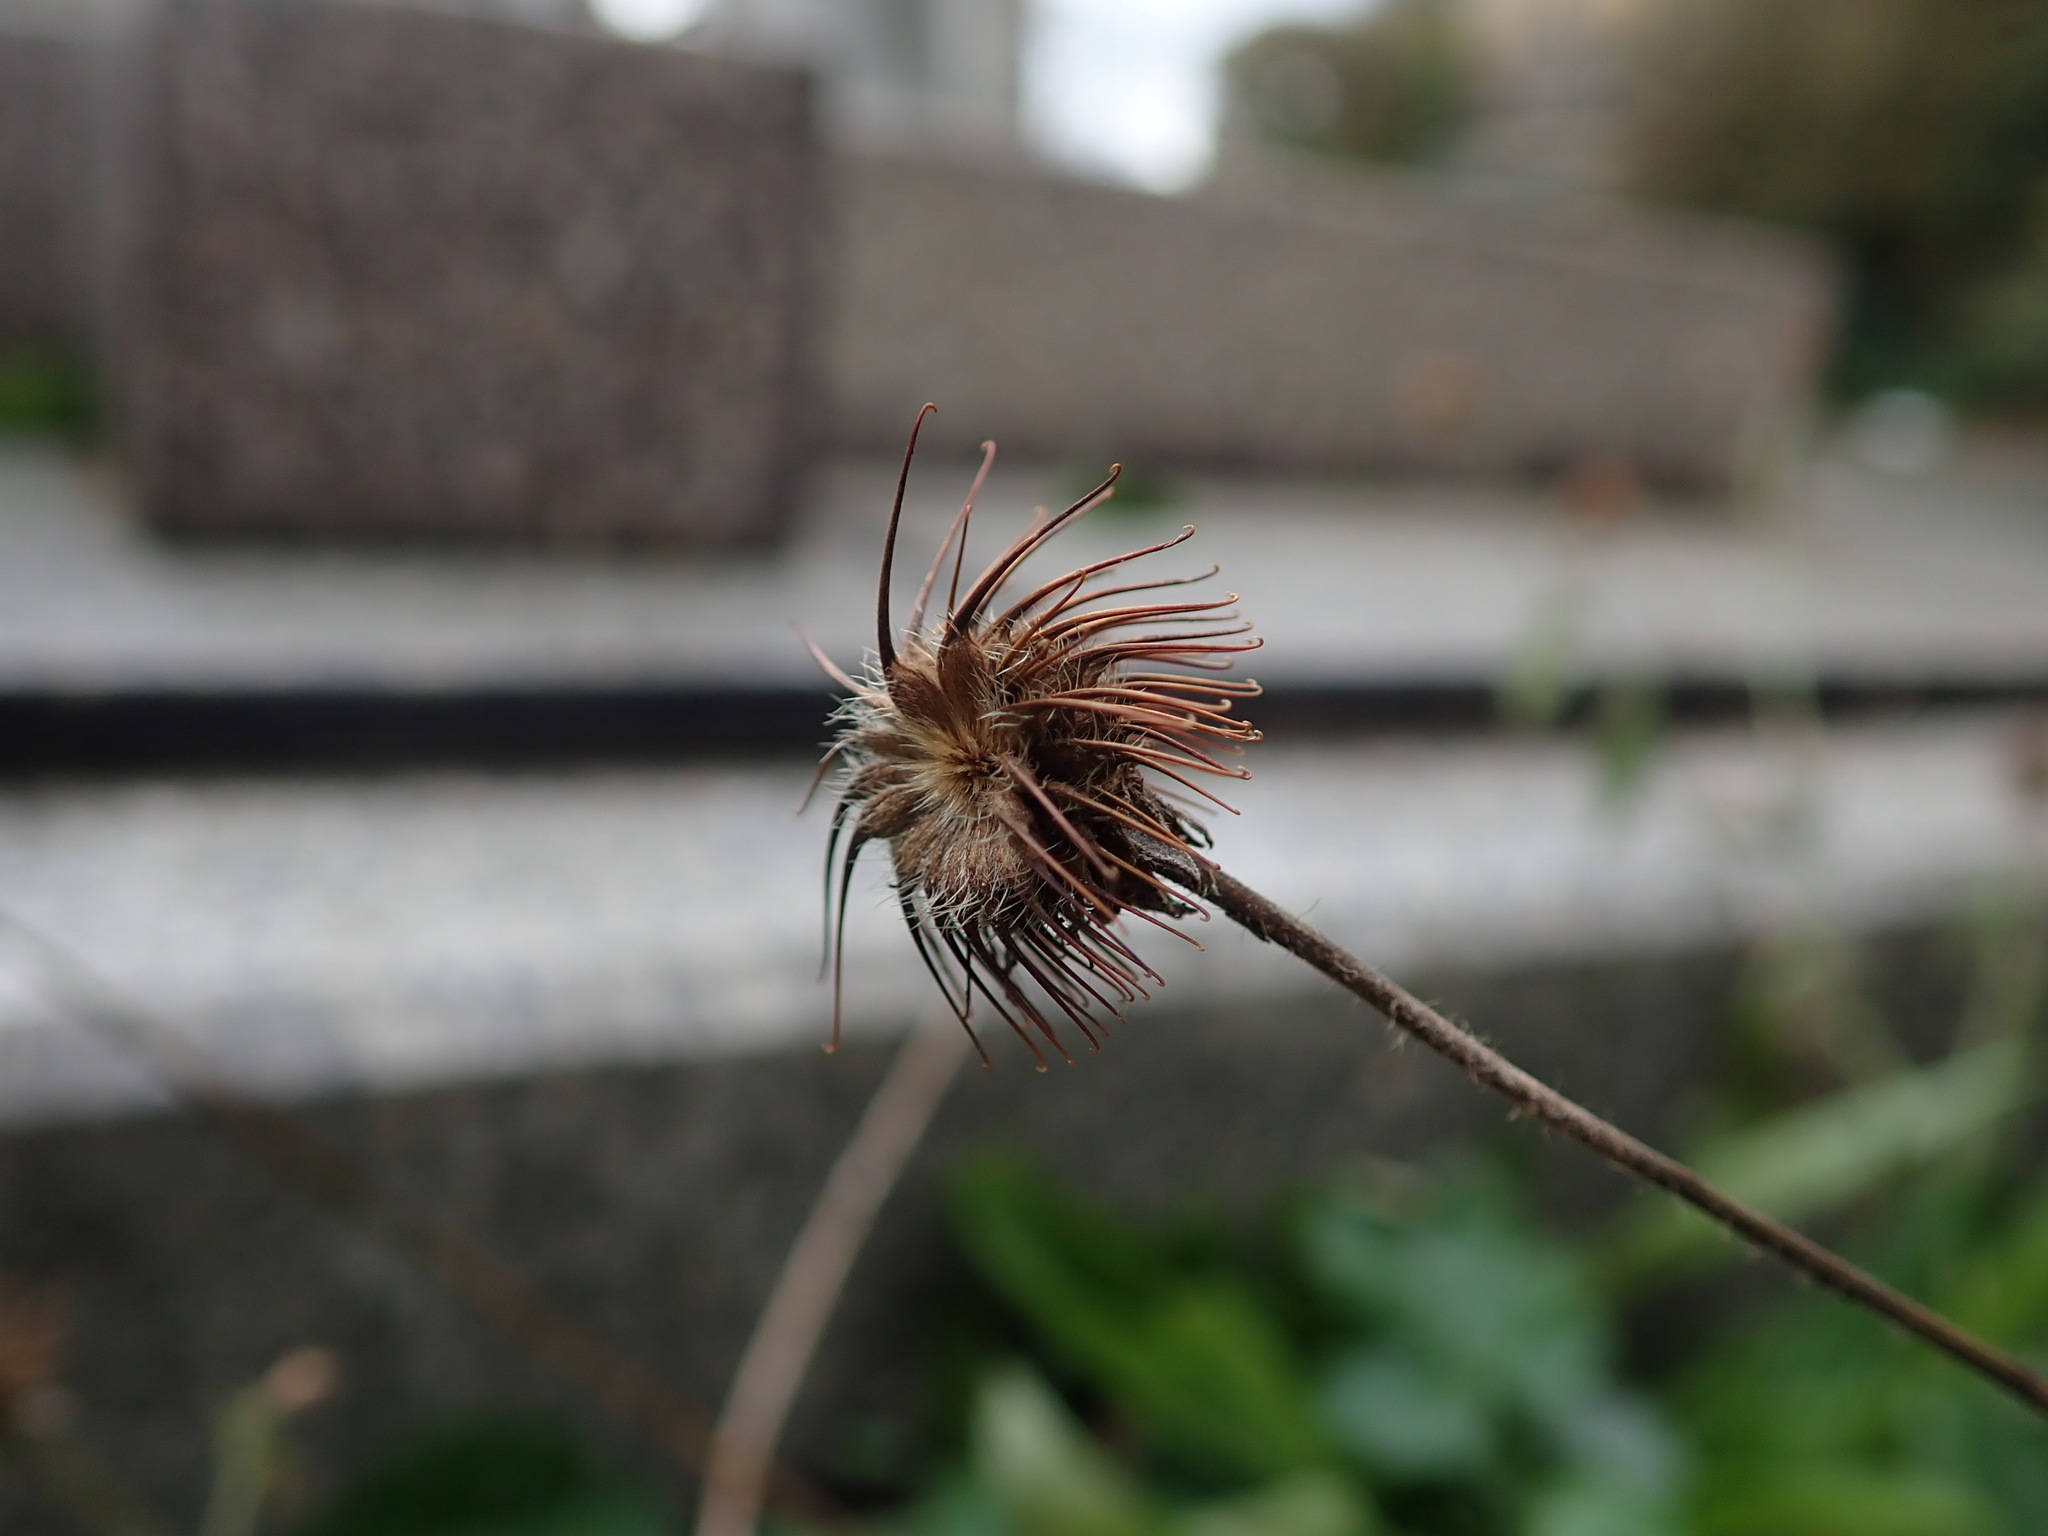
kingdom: Plantae
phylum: Tracheophyta
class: Magnoliopsida
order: Rosales
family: Rosaceae
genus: Geum
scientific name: Geum urbanum
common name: Wood avens
